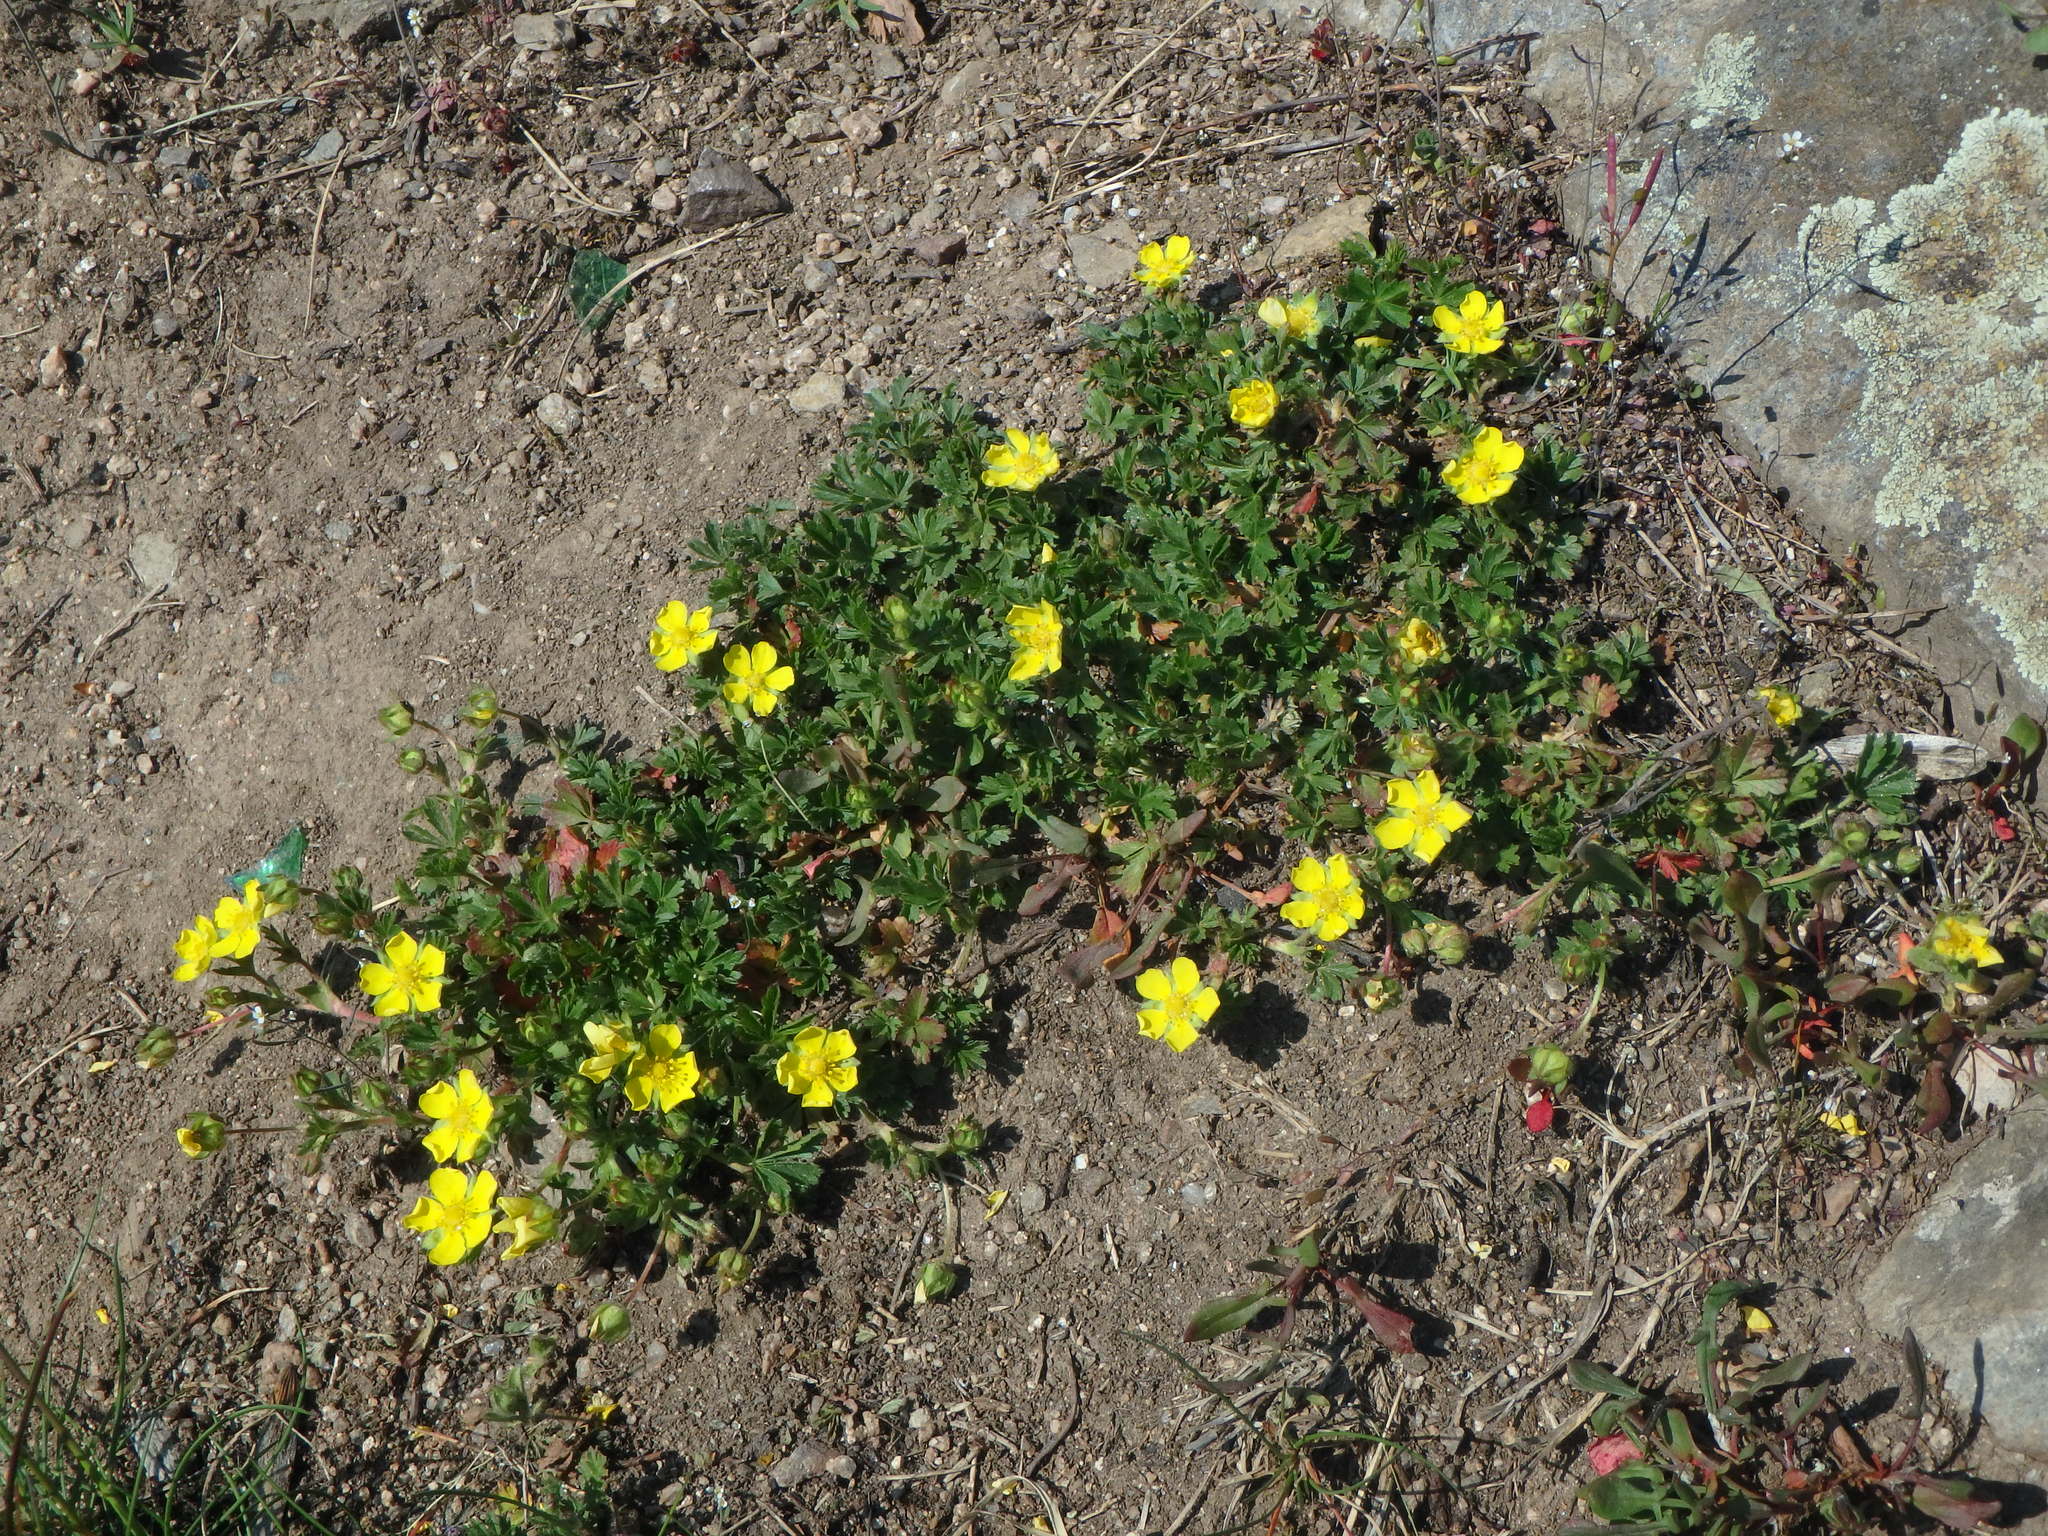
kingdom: Plantae
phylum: Tracheophyta
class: Magnoliopsida
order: Rosales
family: Rosaceae
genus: Potentilla
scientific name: Potentilla verna
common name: Spring cinquefoil
